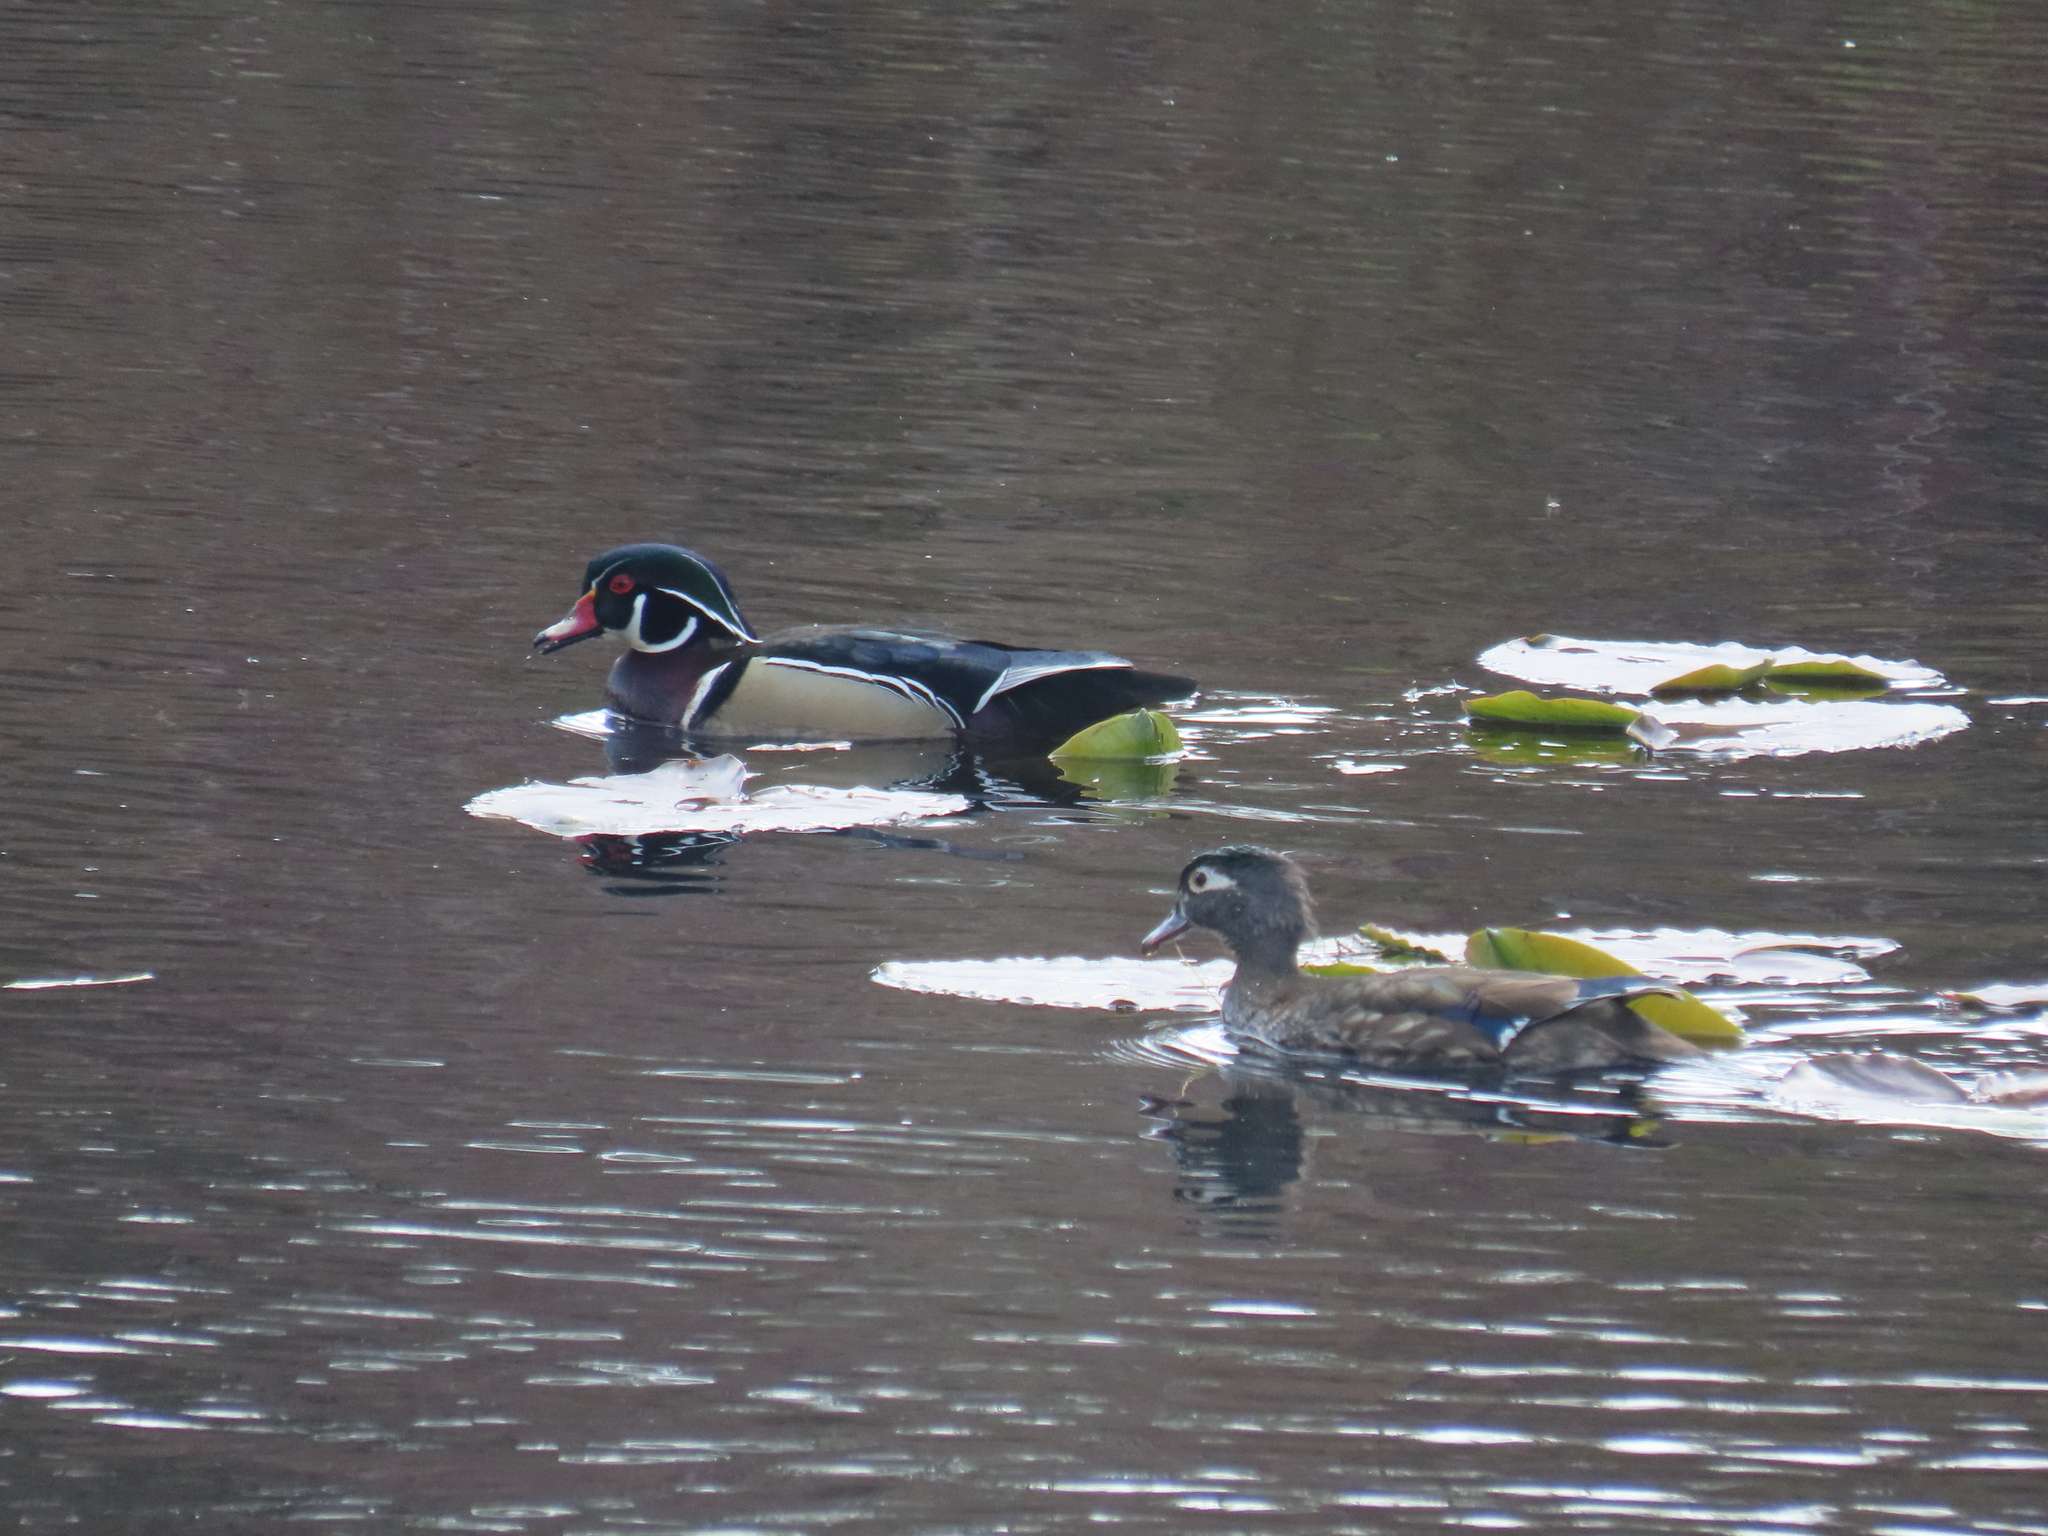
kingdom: Animalia
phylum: Chordata
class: Aves
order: Anseriformes
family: Anatidae
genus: Aix
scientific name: Aix sponsa
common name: Wood duck
